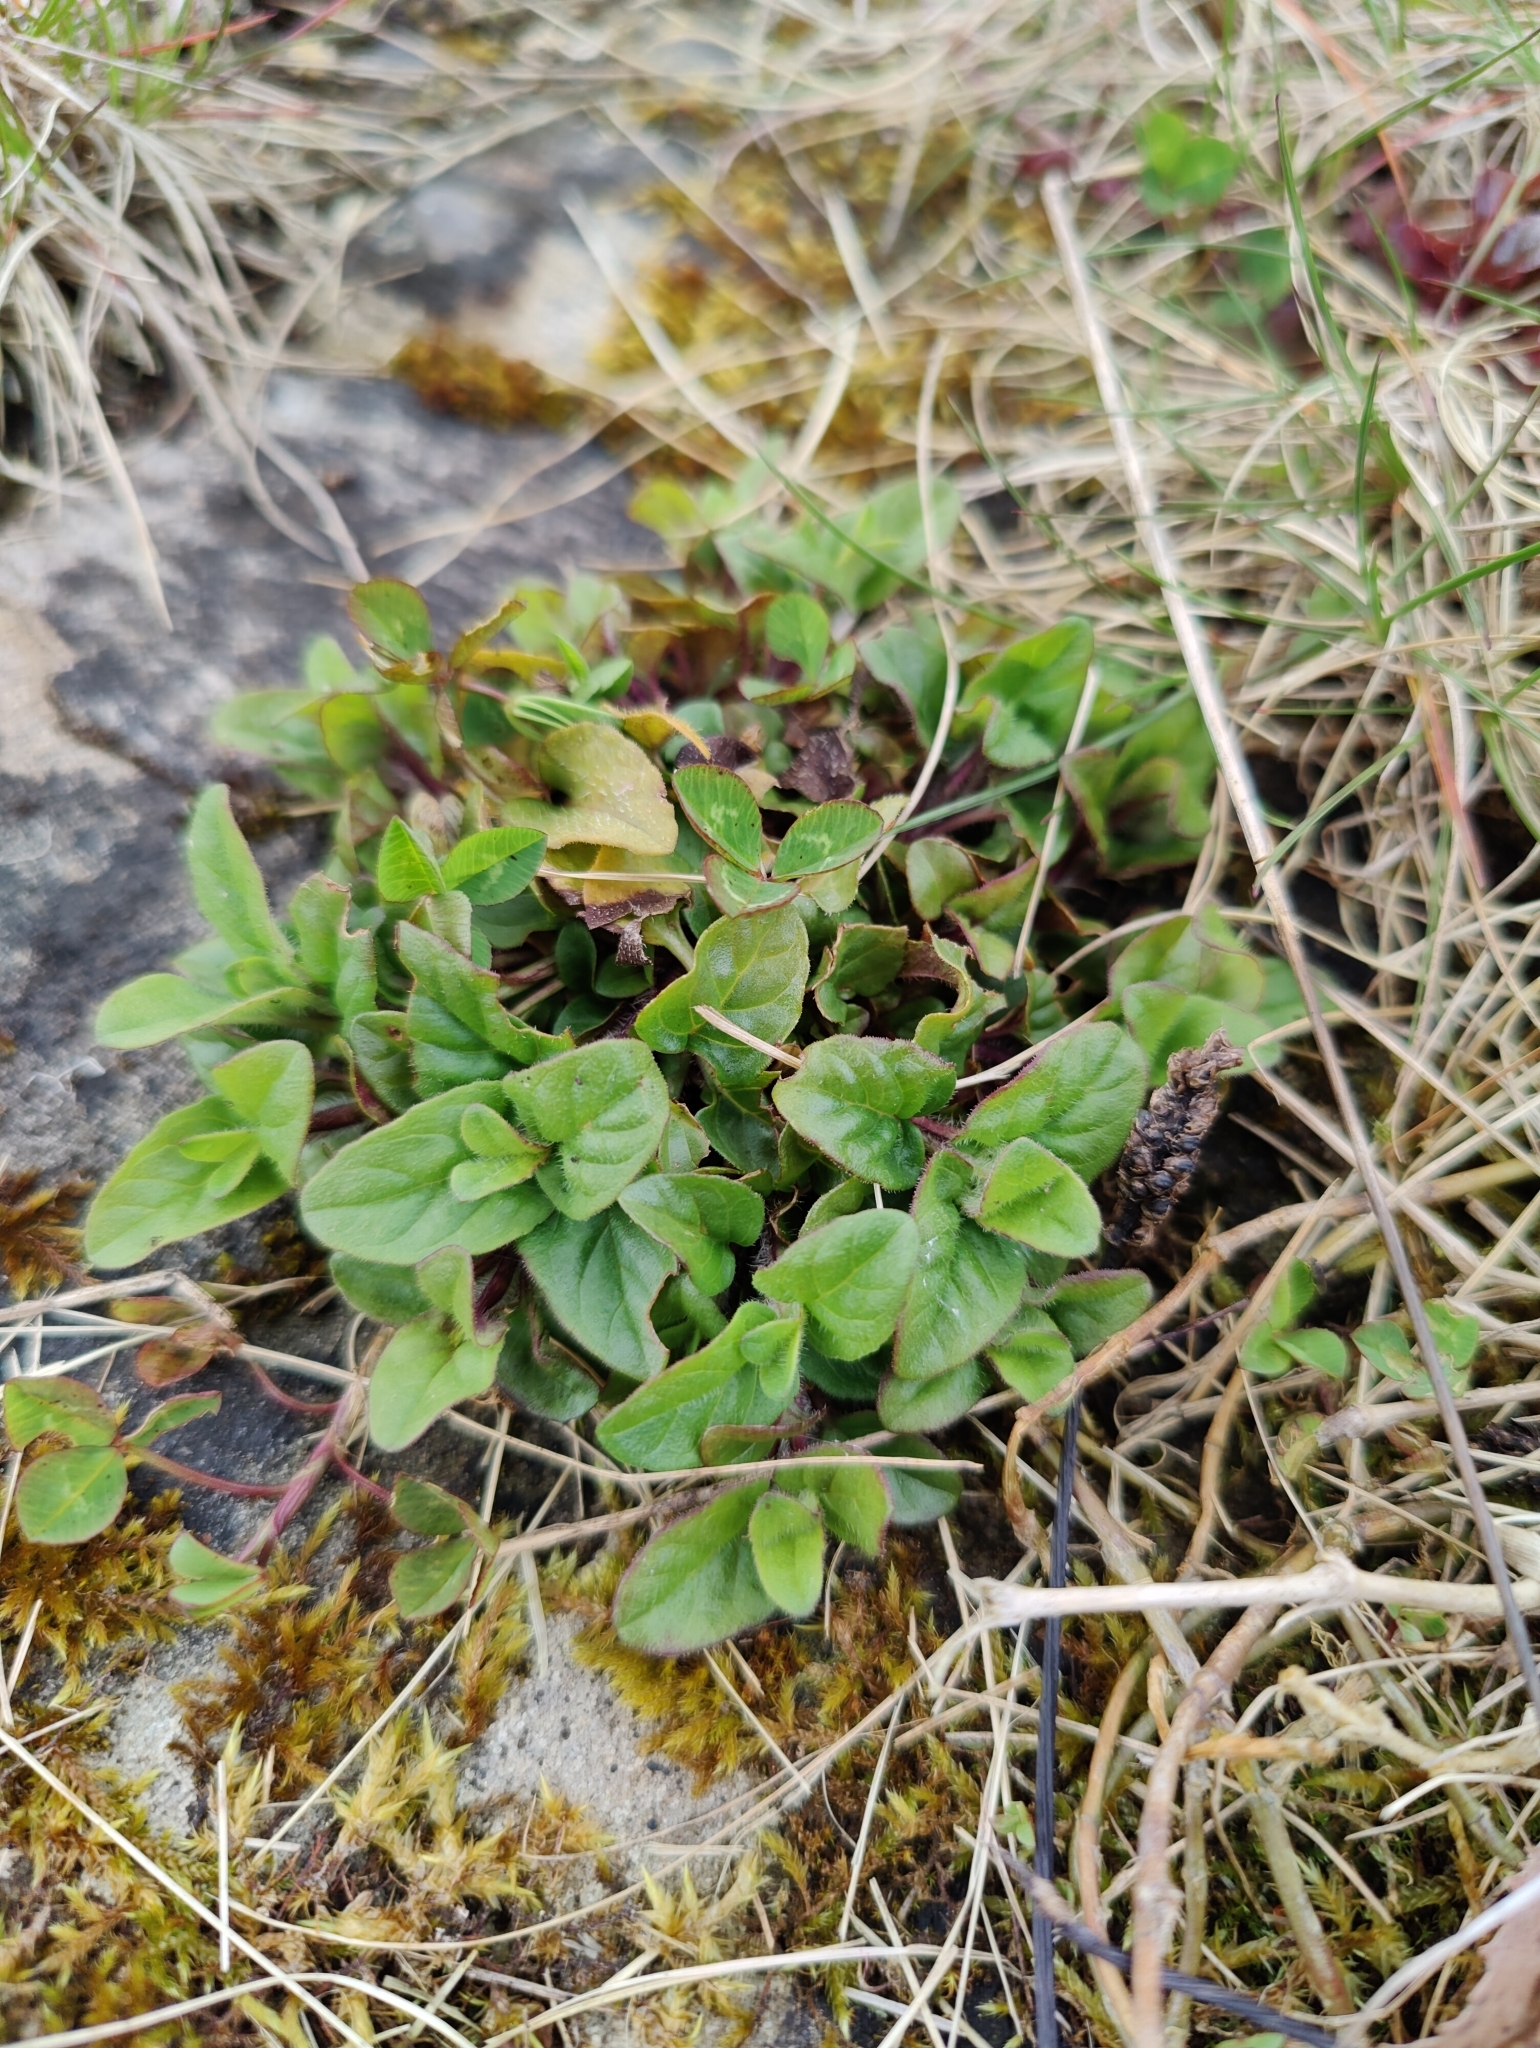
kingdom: Plantae
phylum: Tracheophyta
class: Magnoliopsida
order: Lamiales
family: Lamiaceae
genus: Prunella
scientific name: Prunella vulgaris
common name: Heal-all
